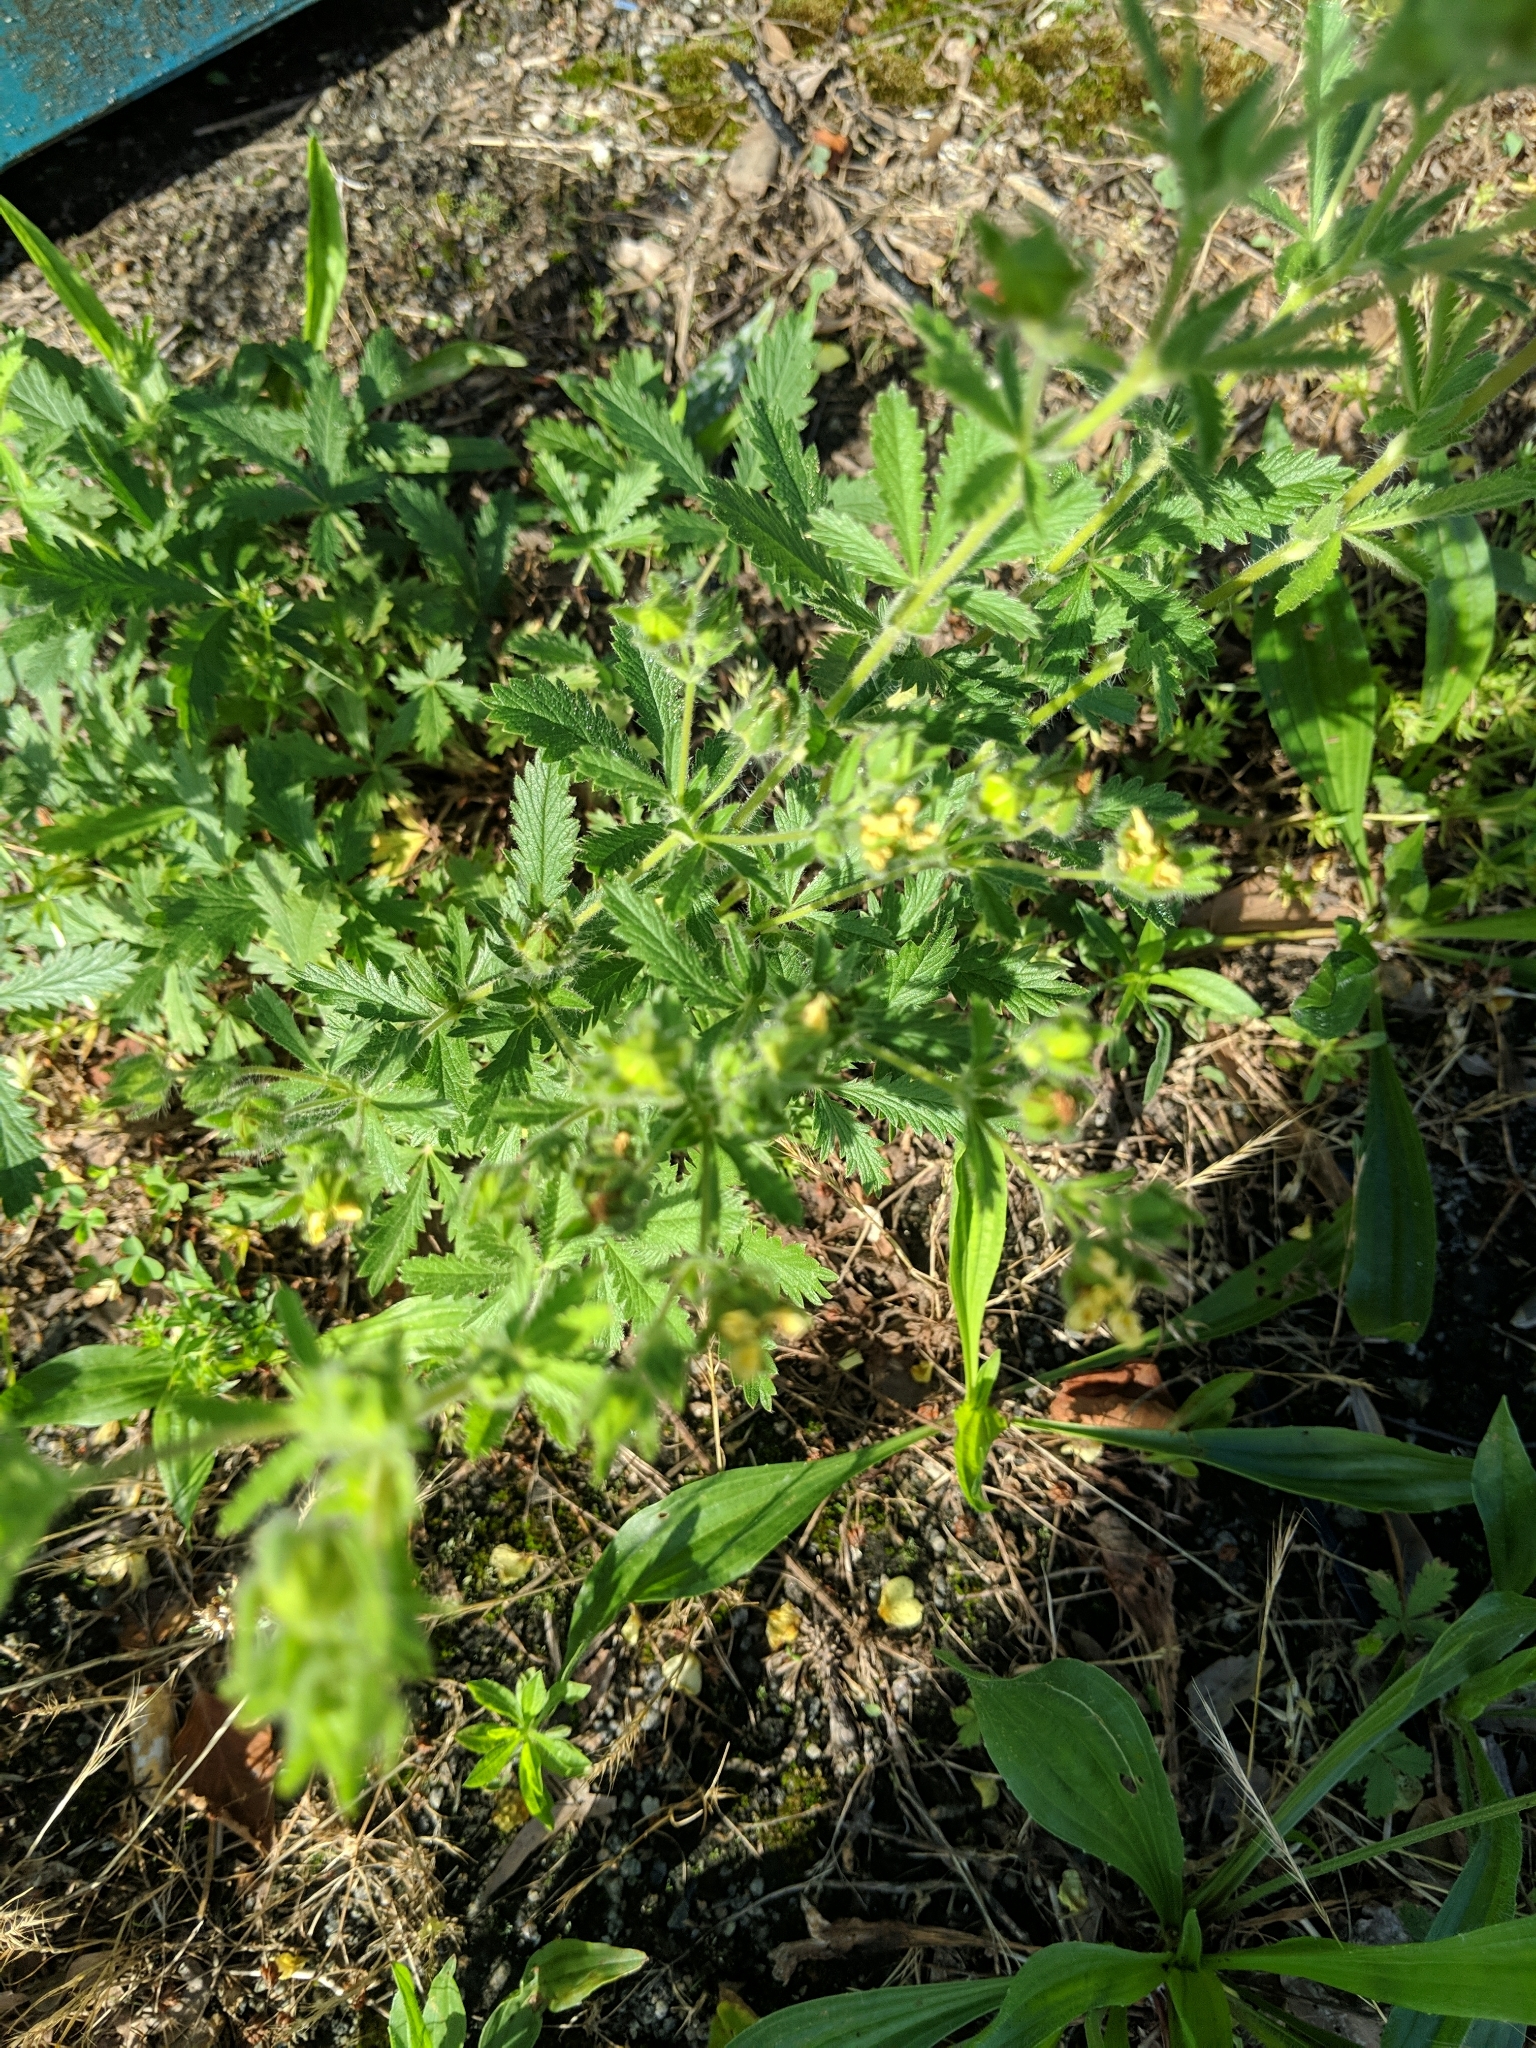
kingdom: Plantae
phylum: Tracheophyta
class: Magnoliopsida
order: Rosales
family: Rosaceae
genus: Potentilla
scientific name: Potentilla recta
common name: Sulphur cinquefoil
